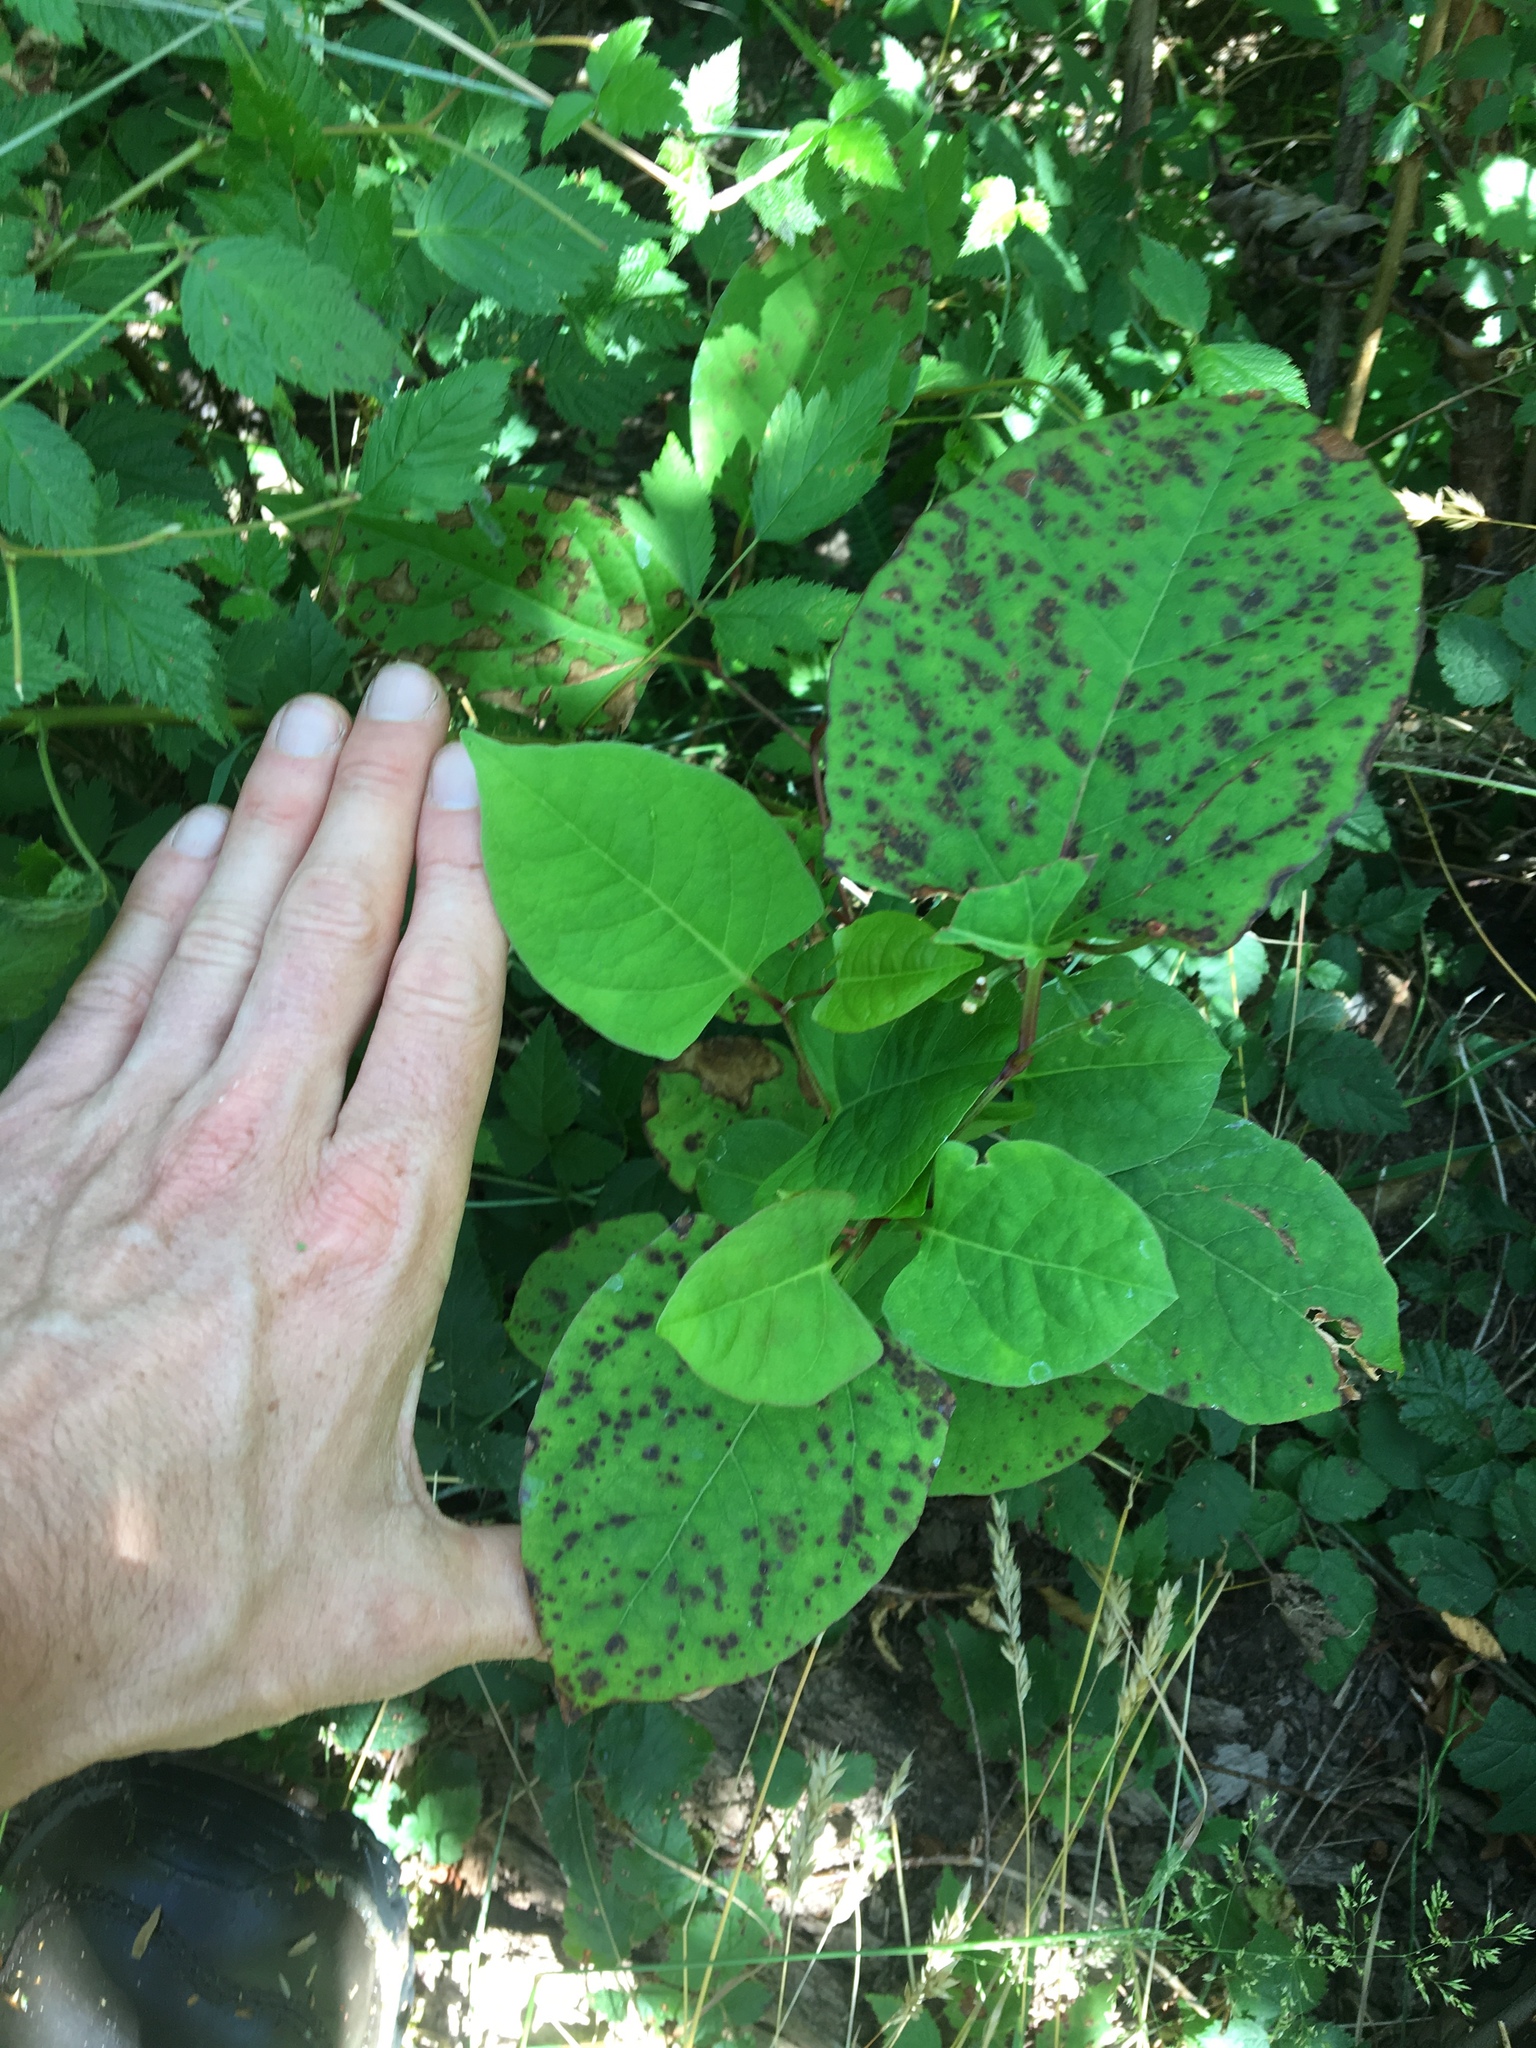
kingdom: Plantae
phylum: Tracheophyta
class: Magnoliopsida
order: Caryophyllales
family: Polygonaceae
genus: Reynoutria
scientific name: Reynoutria japonica
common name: Japanese knotweed
